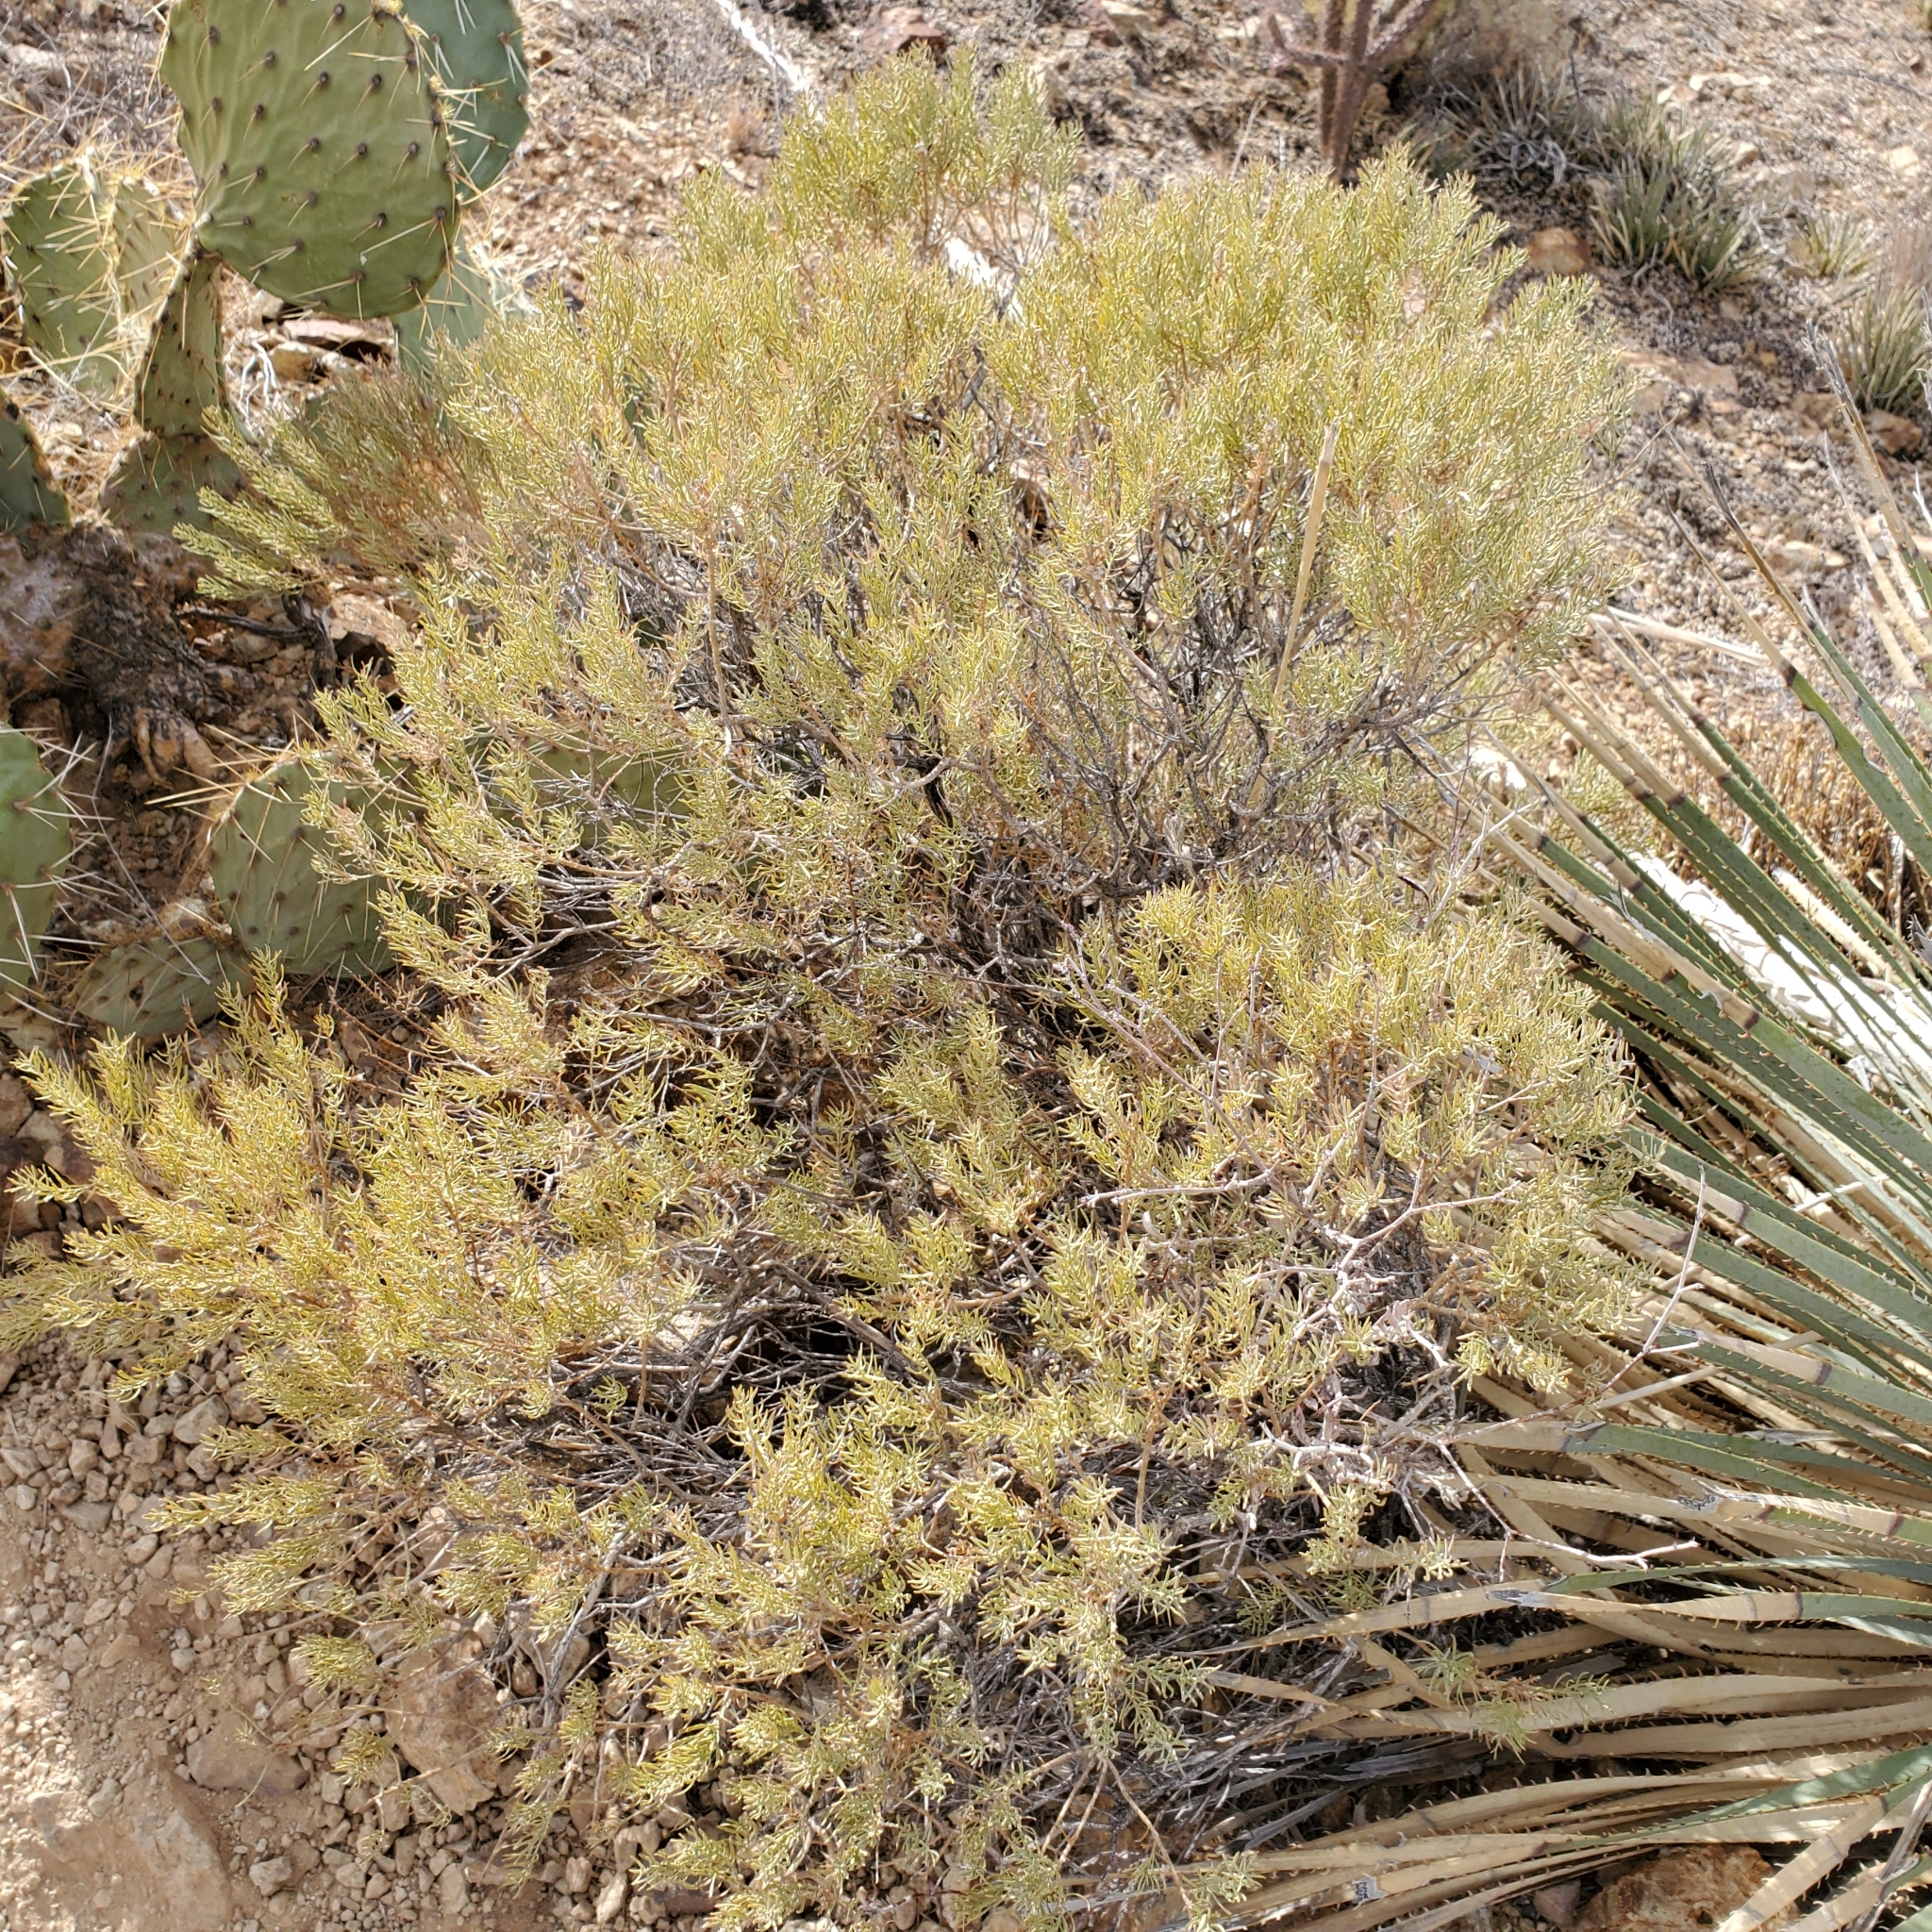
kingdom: Plantae
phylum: Tracheophyta
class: Magnoliopsida
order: Asterales
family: Asteraceae
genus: Ericameria
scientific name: Ericameria laricifolia
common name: Turpentine-bush
